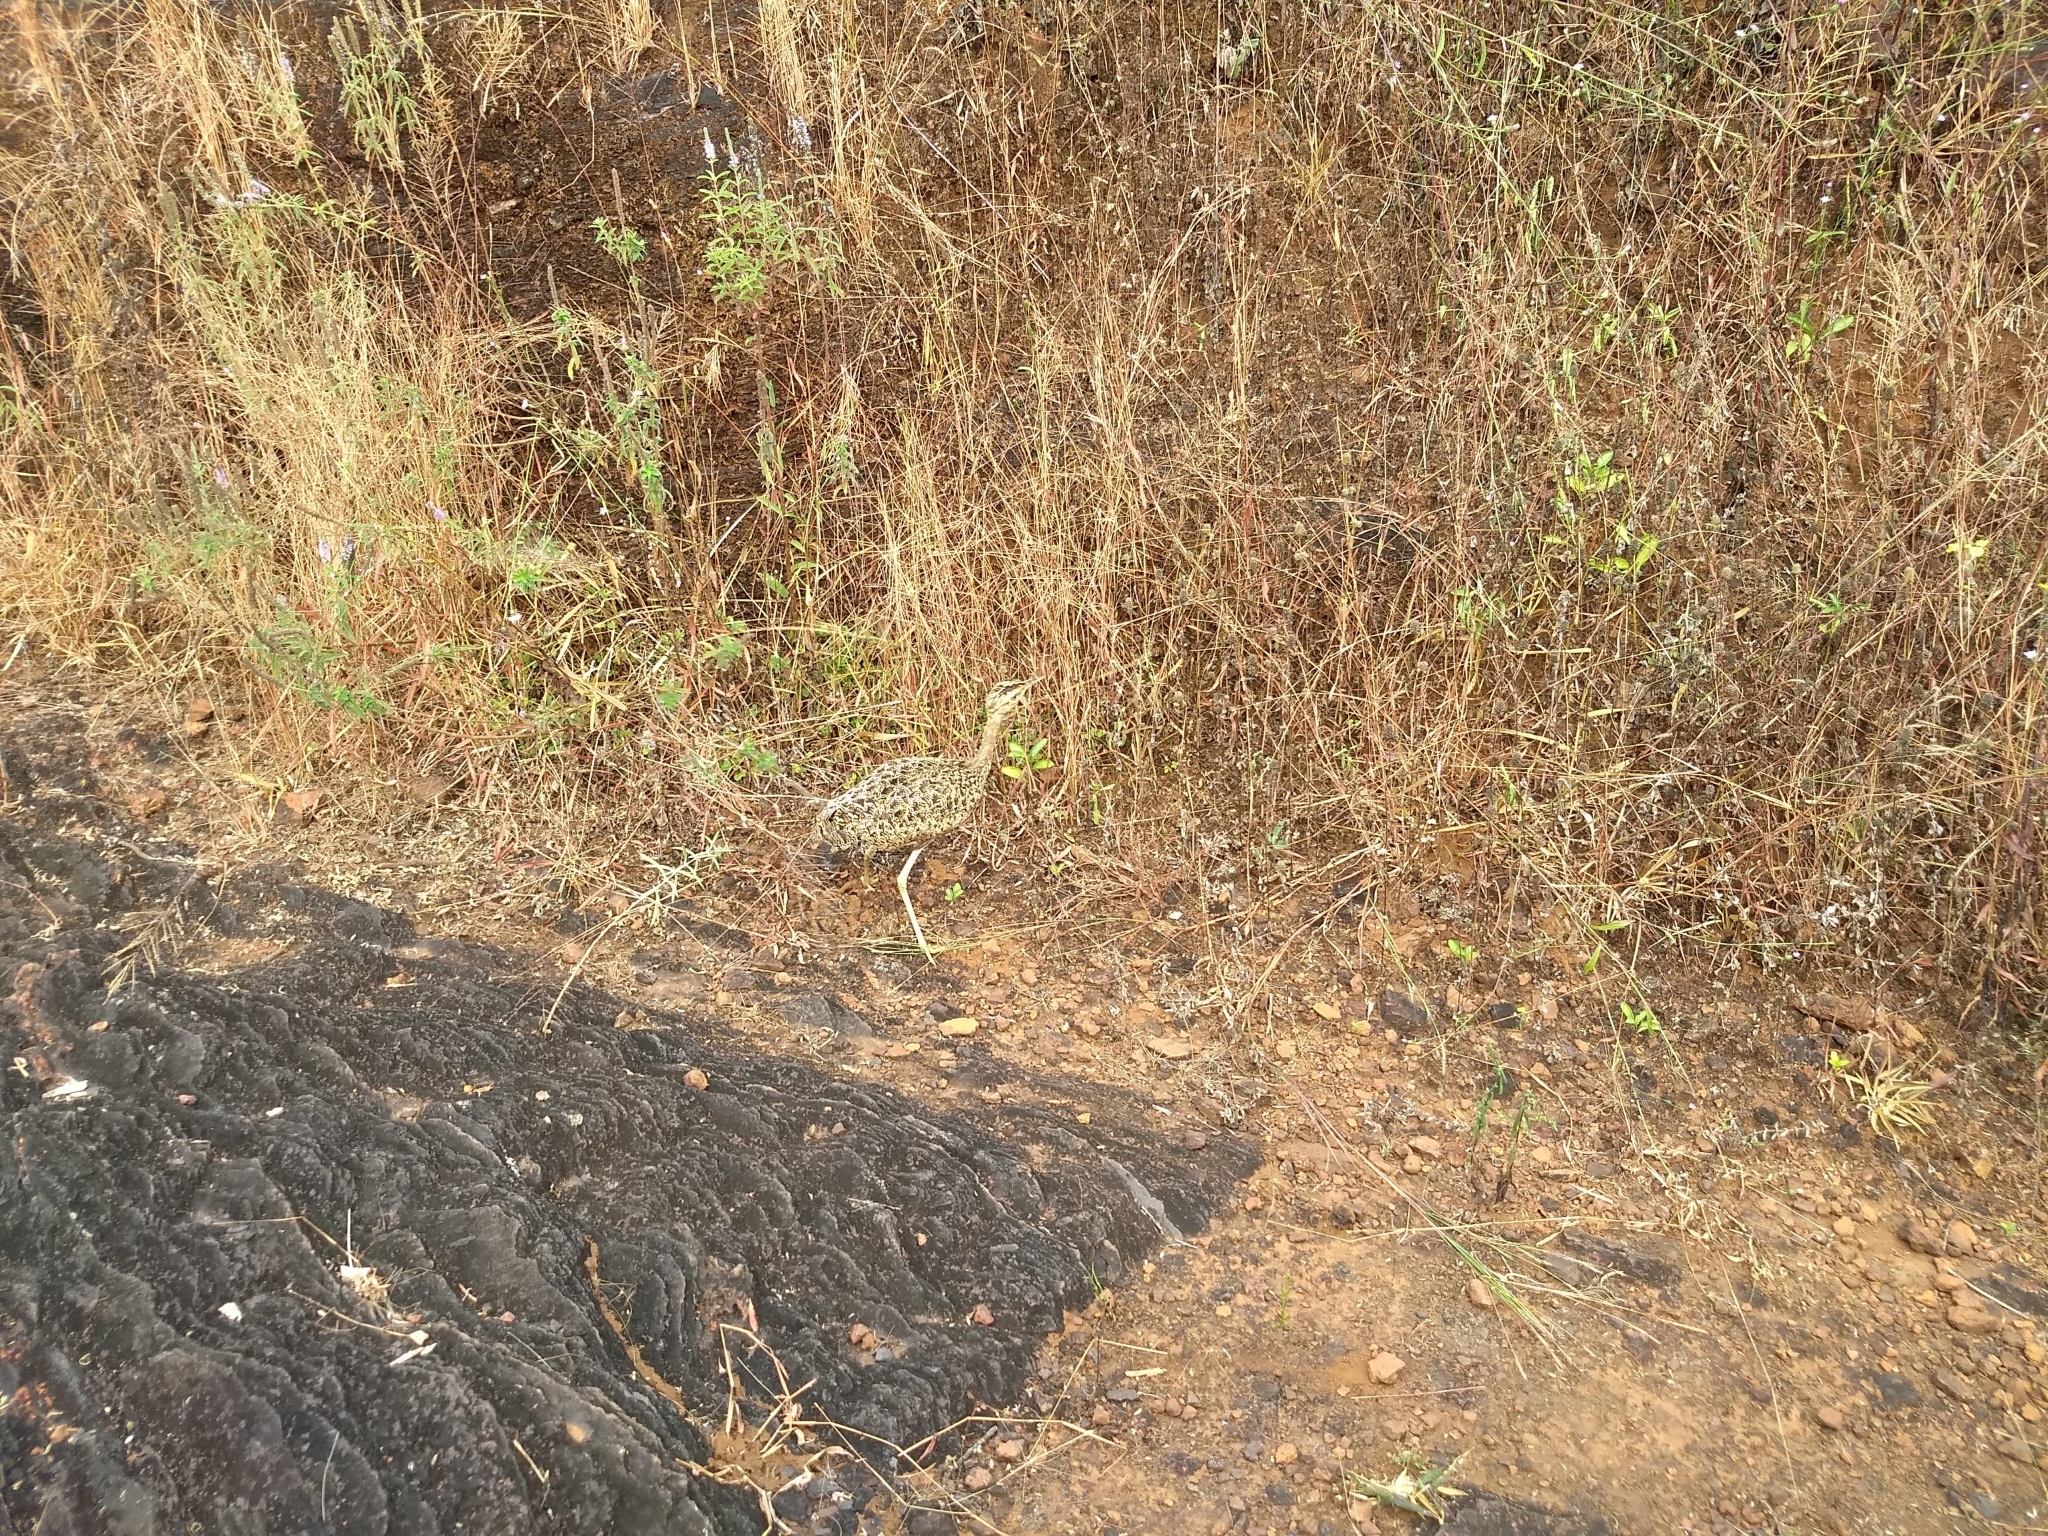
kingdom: Animalia
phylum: Chordata
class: Aves
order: Otidiformes
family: Otididae
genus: Sypheotides
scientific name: Sypheotides indicus
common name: Lesser florican
